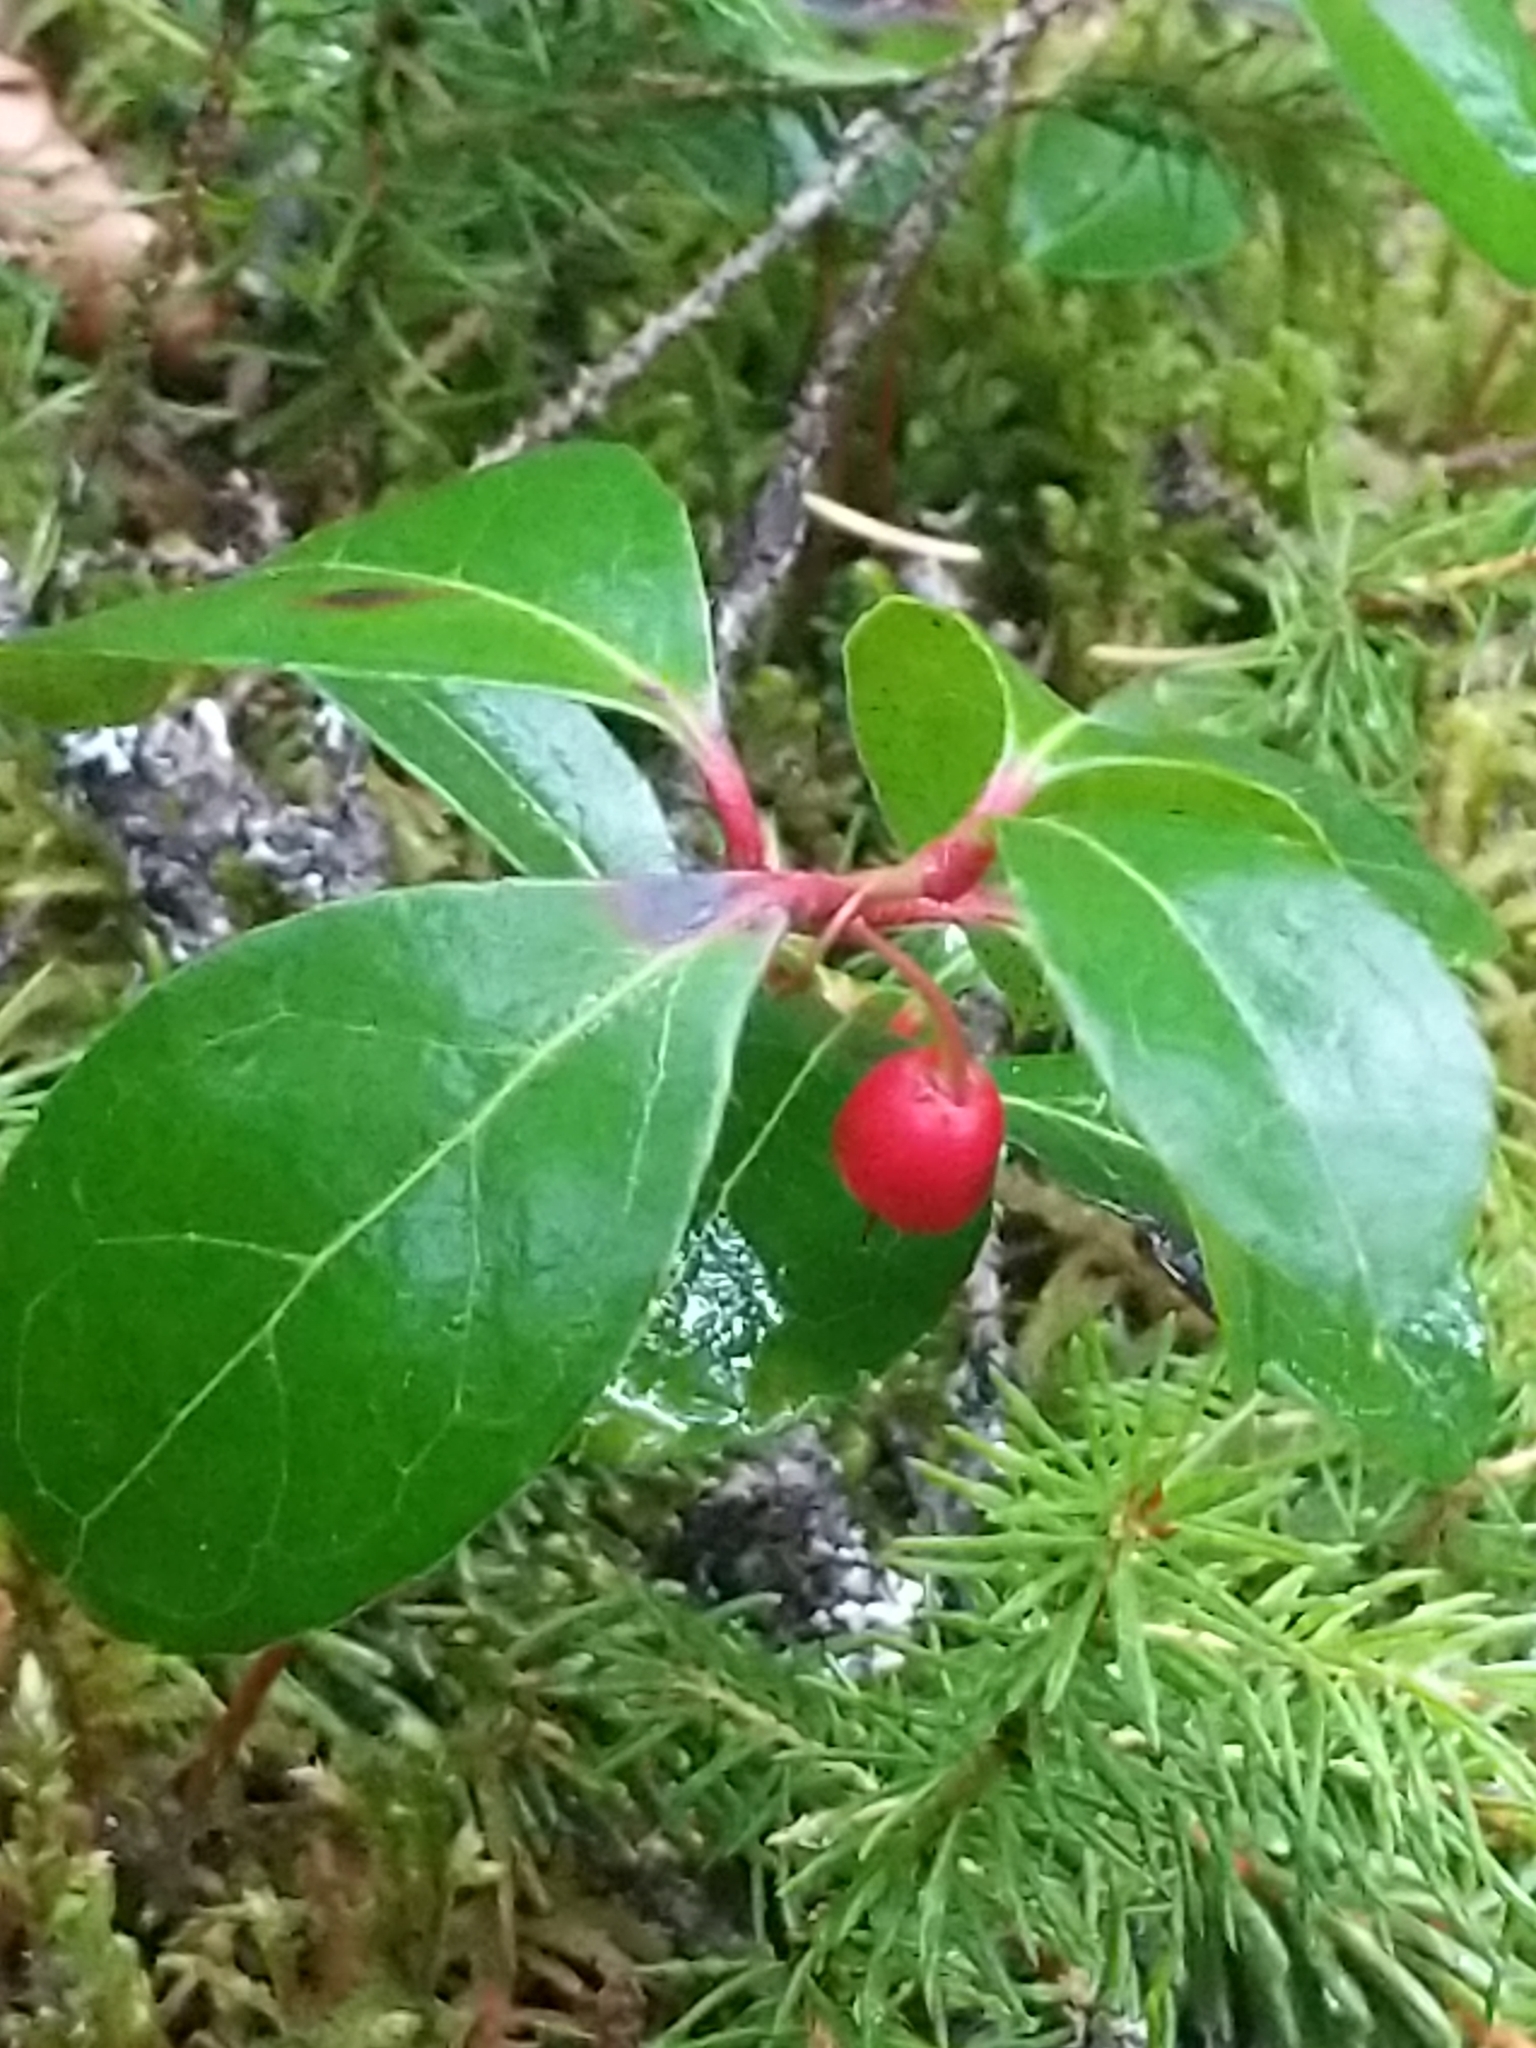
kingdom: Plantae
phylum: Tracheophyta
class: Magnoliopsida
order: Ericales
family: Ericaceae
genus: Gaultheria
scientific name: Gaultheria procumbens
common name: Checkerberry
